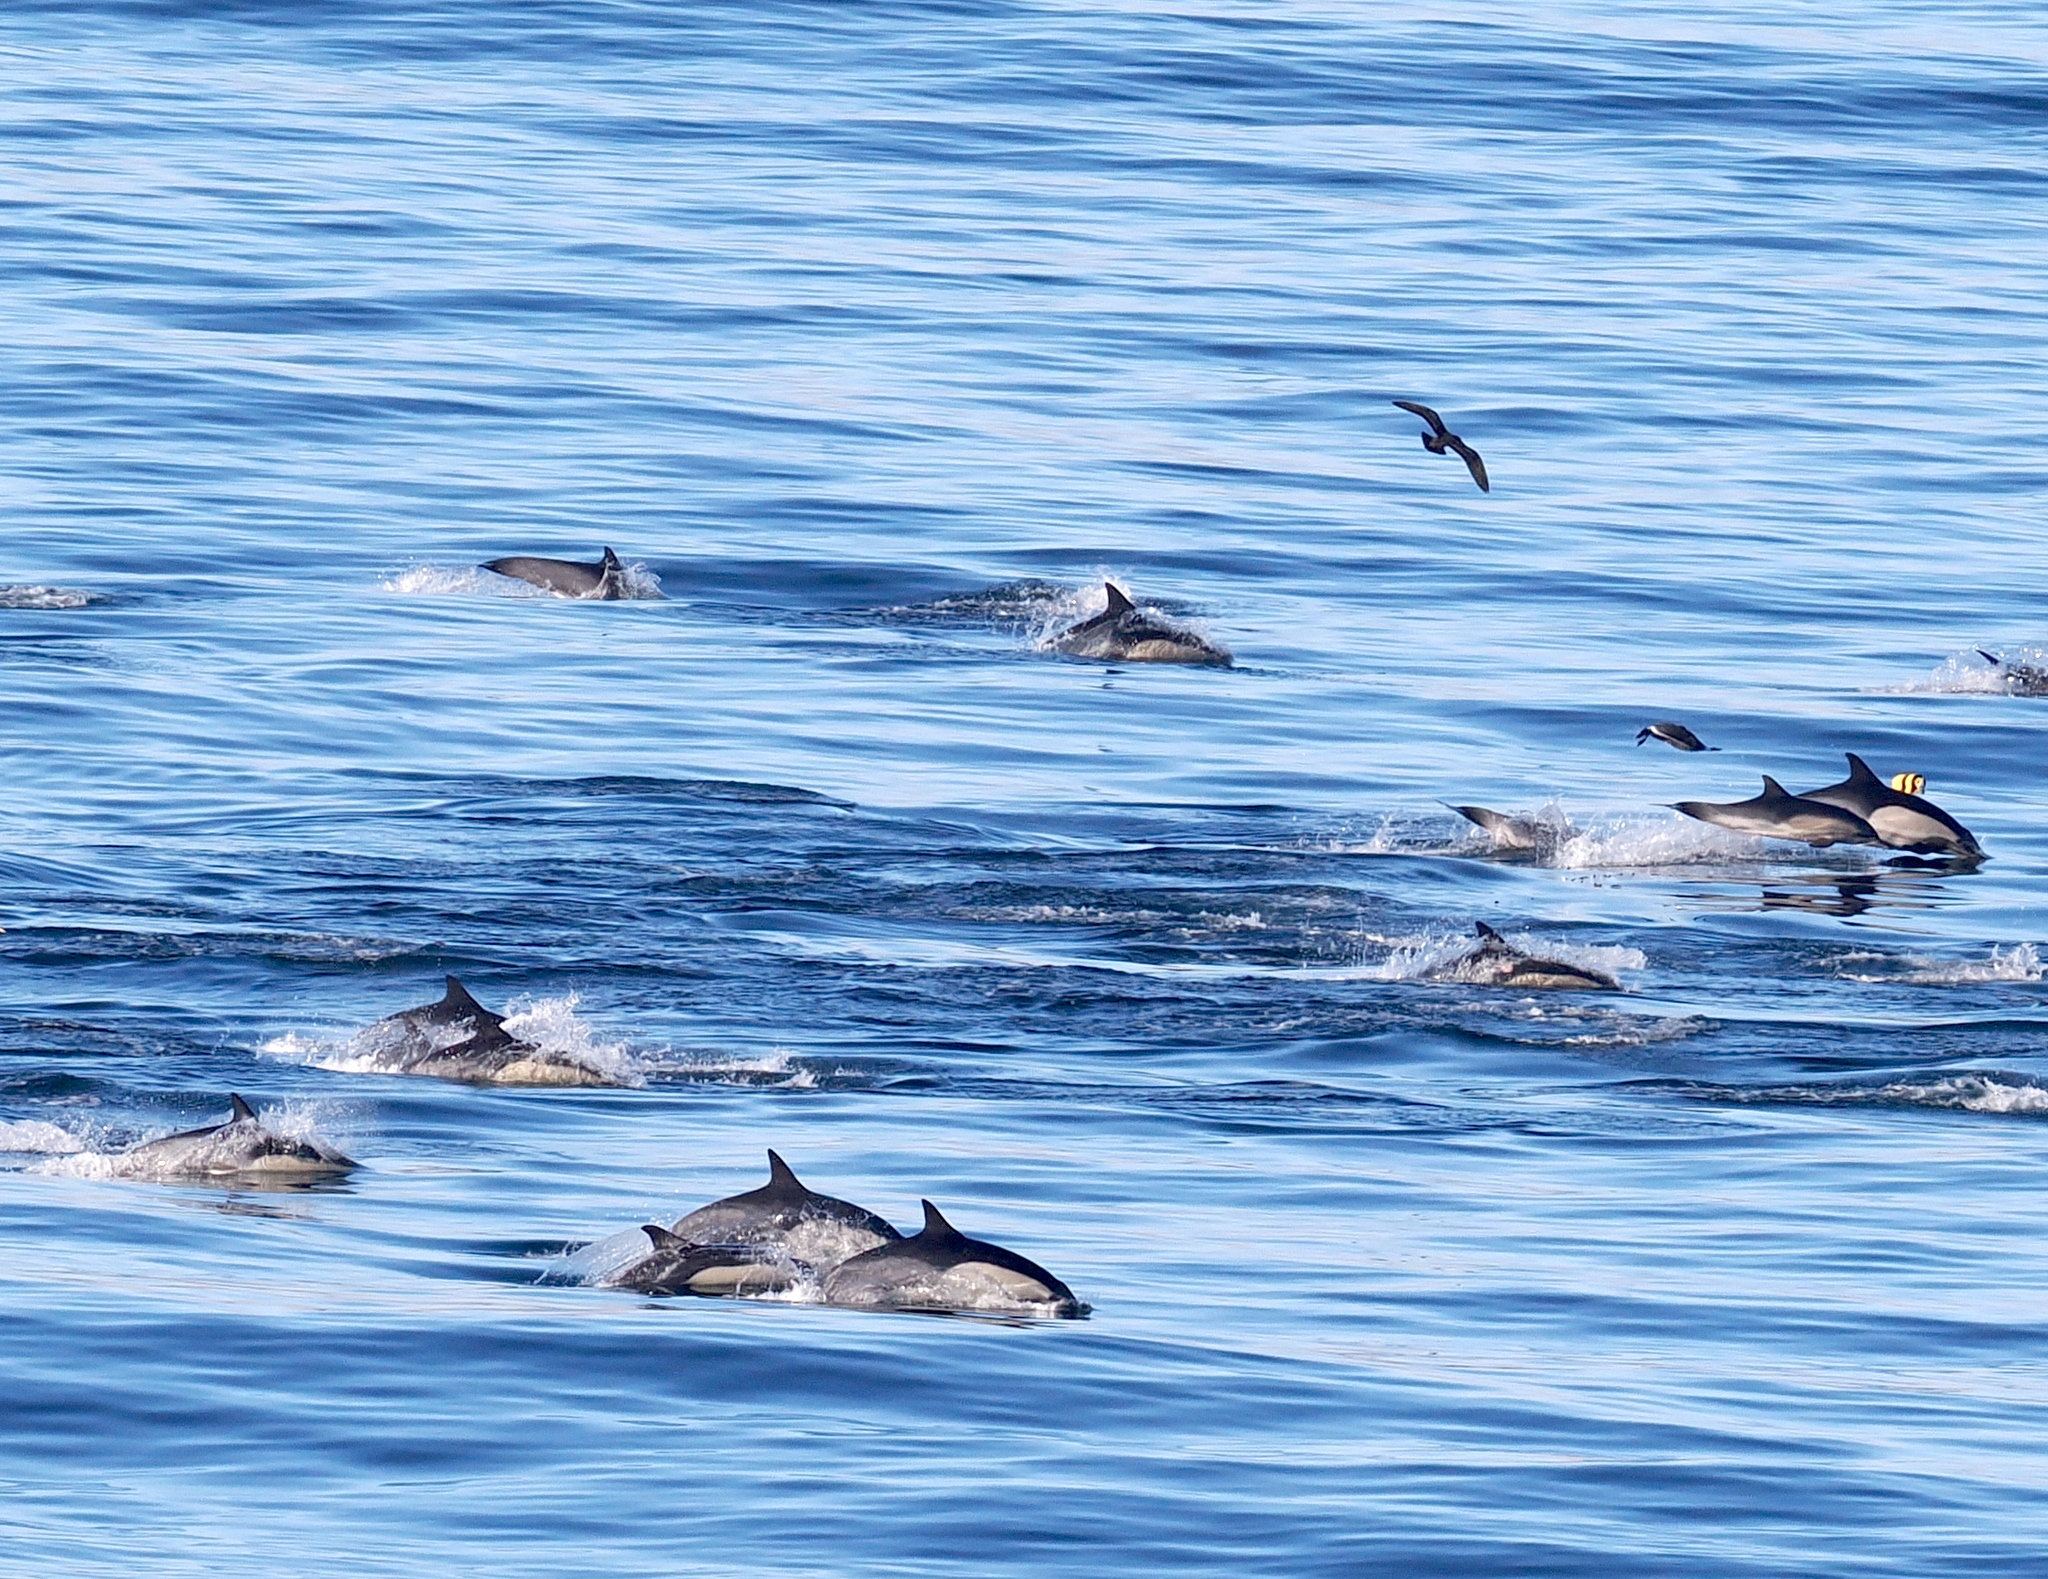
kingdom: Animalia
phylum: Chordata
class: Mammalia
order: Cetacea
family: Delphinidae
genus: Delphinus
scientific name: Delphinus delphis
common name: Common dolphin
